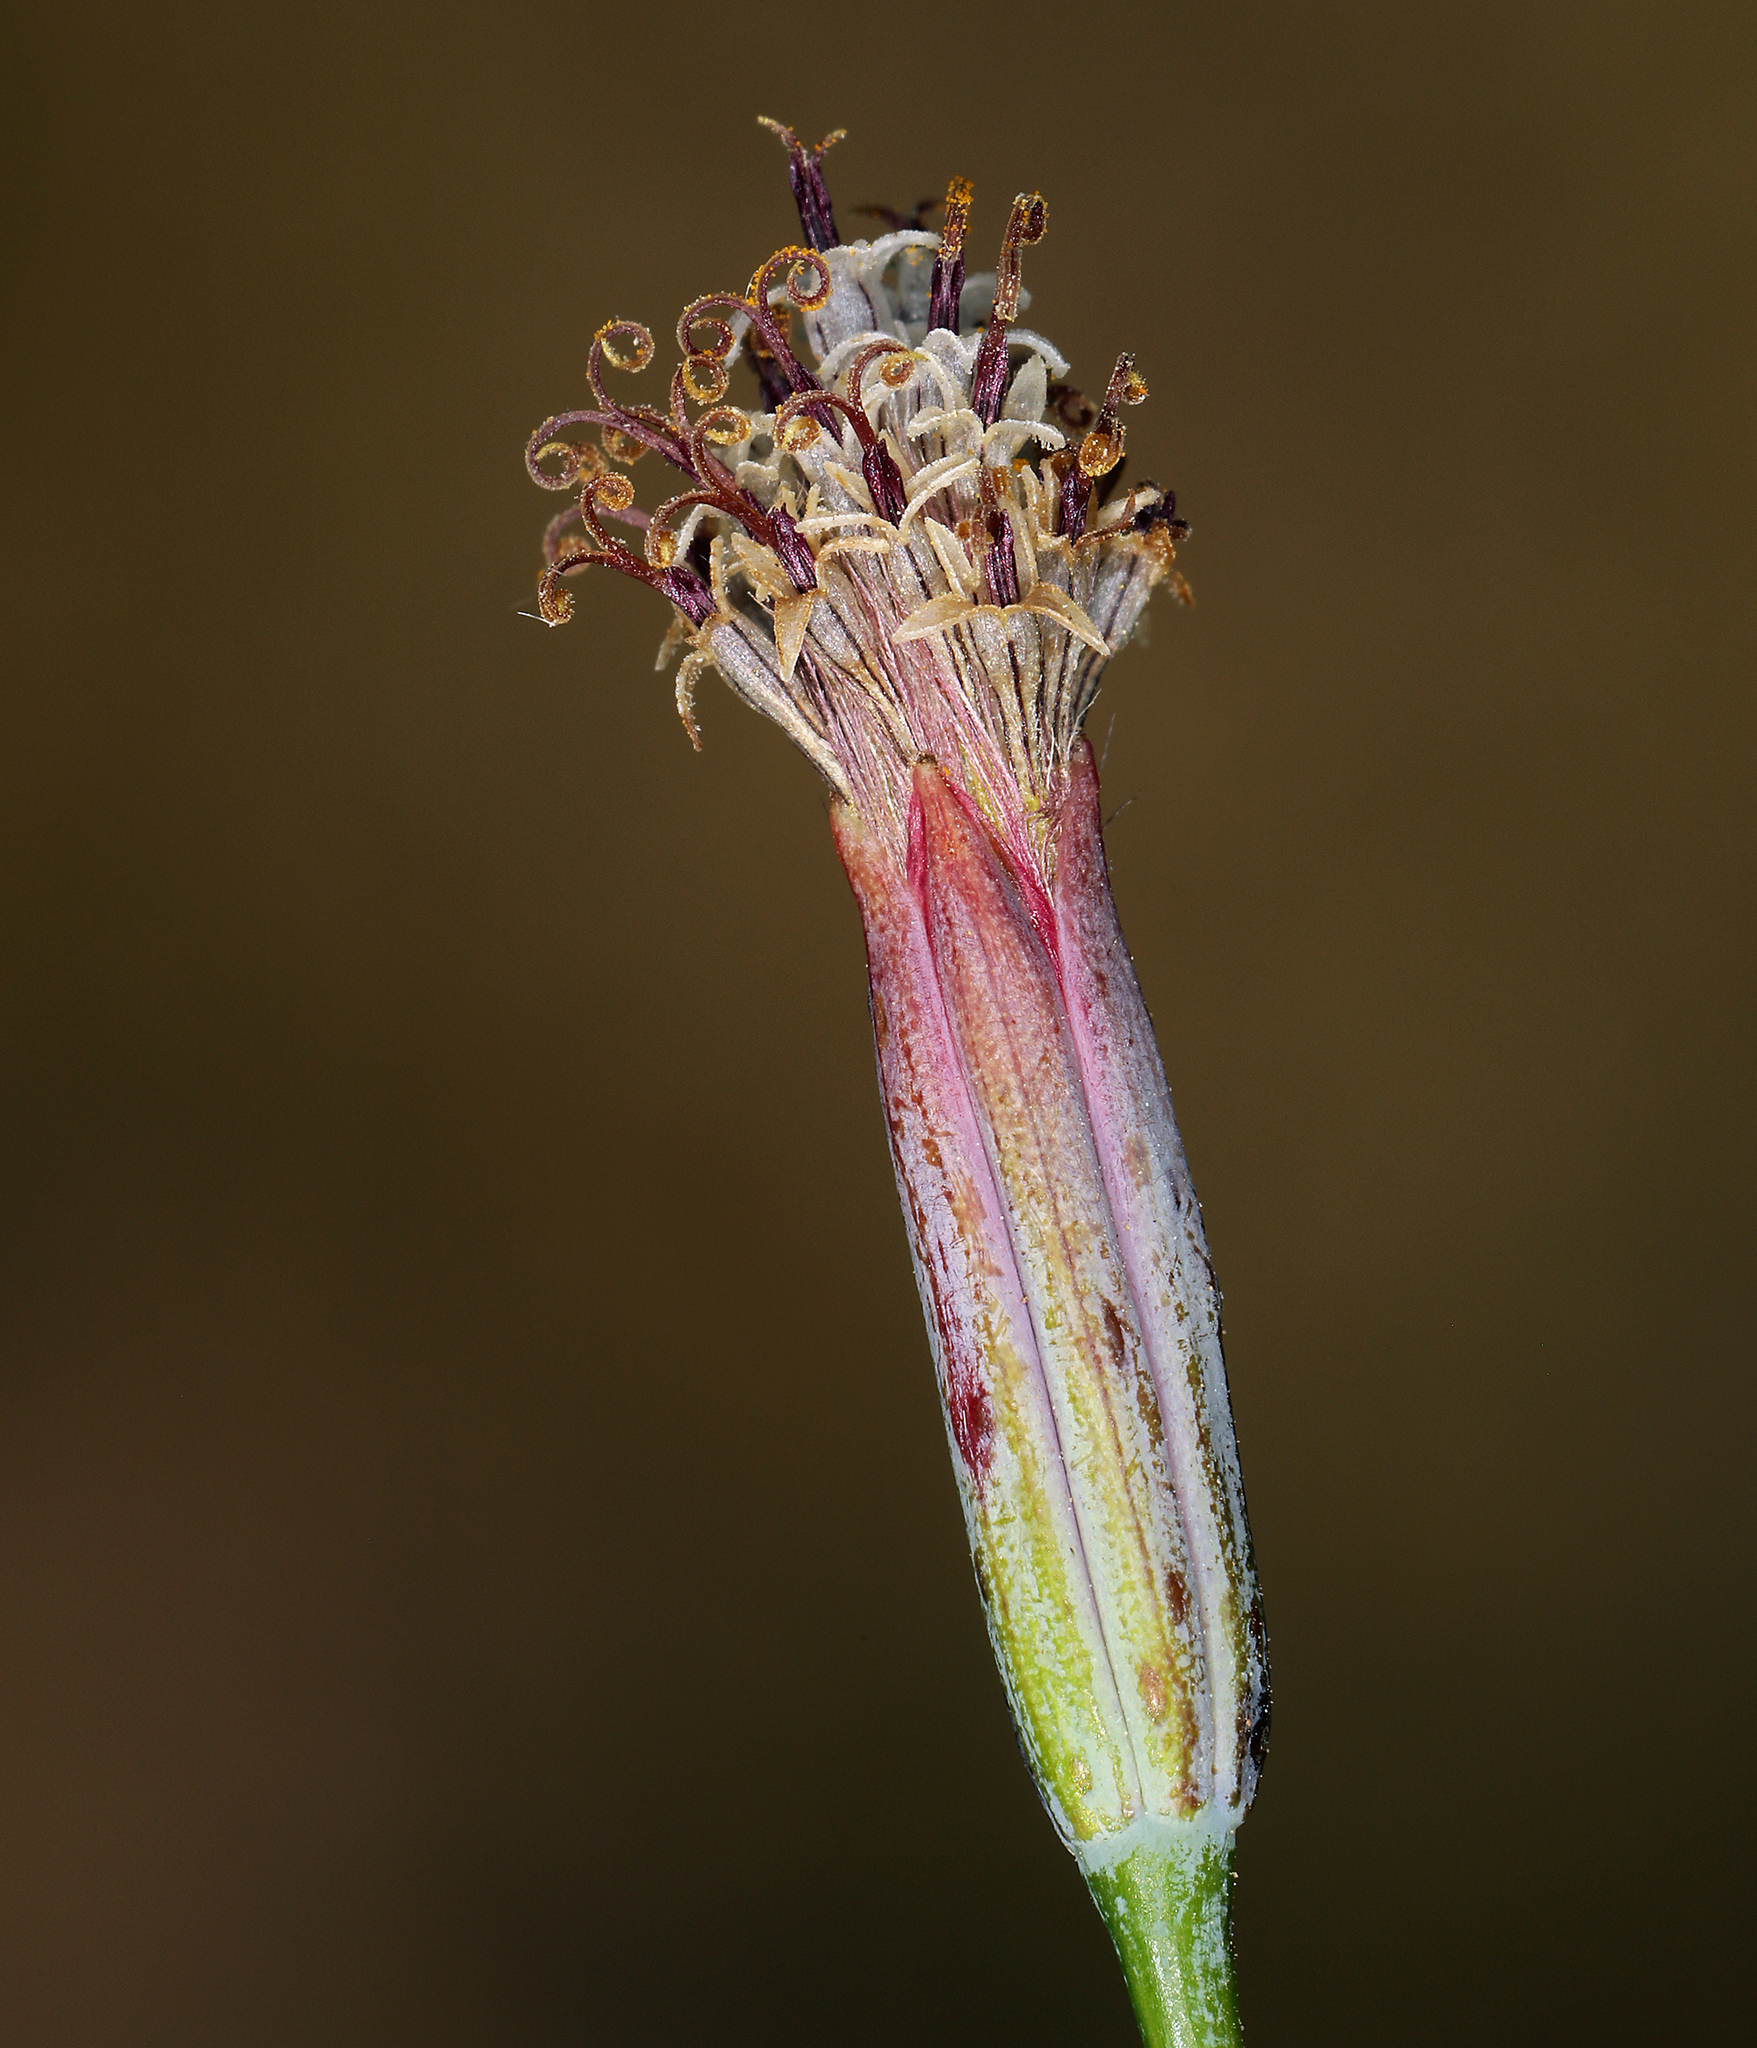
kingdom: Plantae
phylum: Tracheophyta
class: Magnoliopsida
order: Asterales
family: Asteraceae
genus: Porophyllum
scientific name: Porophyllum gracile
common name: Odora
